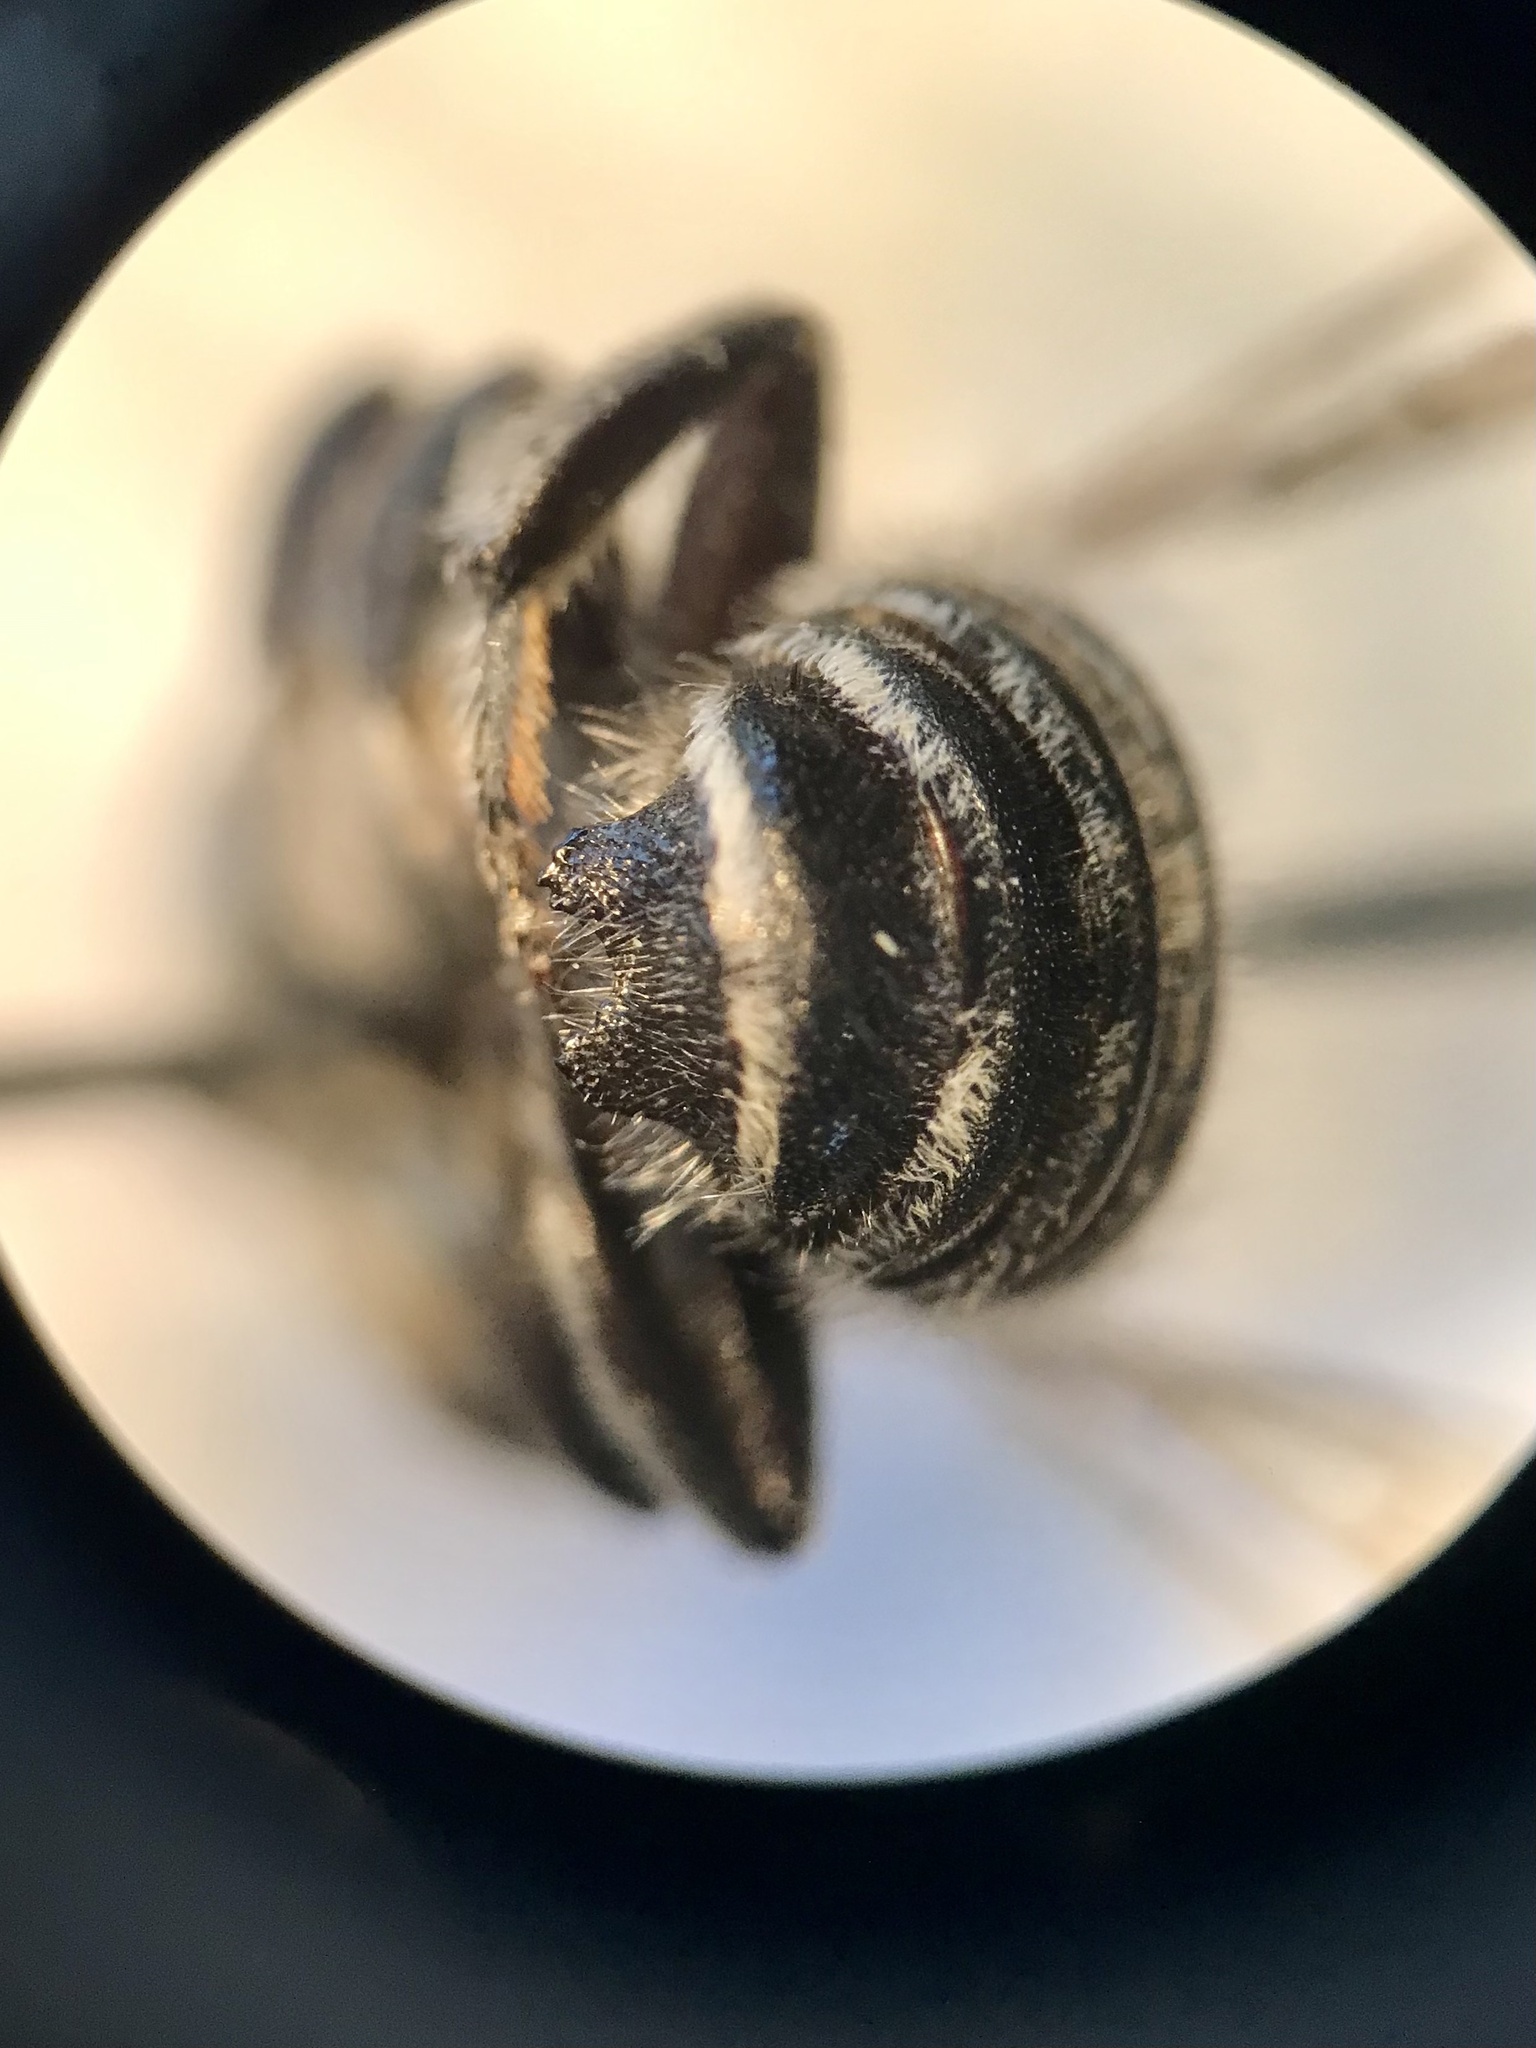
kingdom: Animalia
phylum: Arthropoda
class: Insecta
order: Hymenoptera
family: Megachilidae
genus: Megachile
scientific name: Megachile addenda
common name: Cranberry leafcutter
